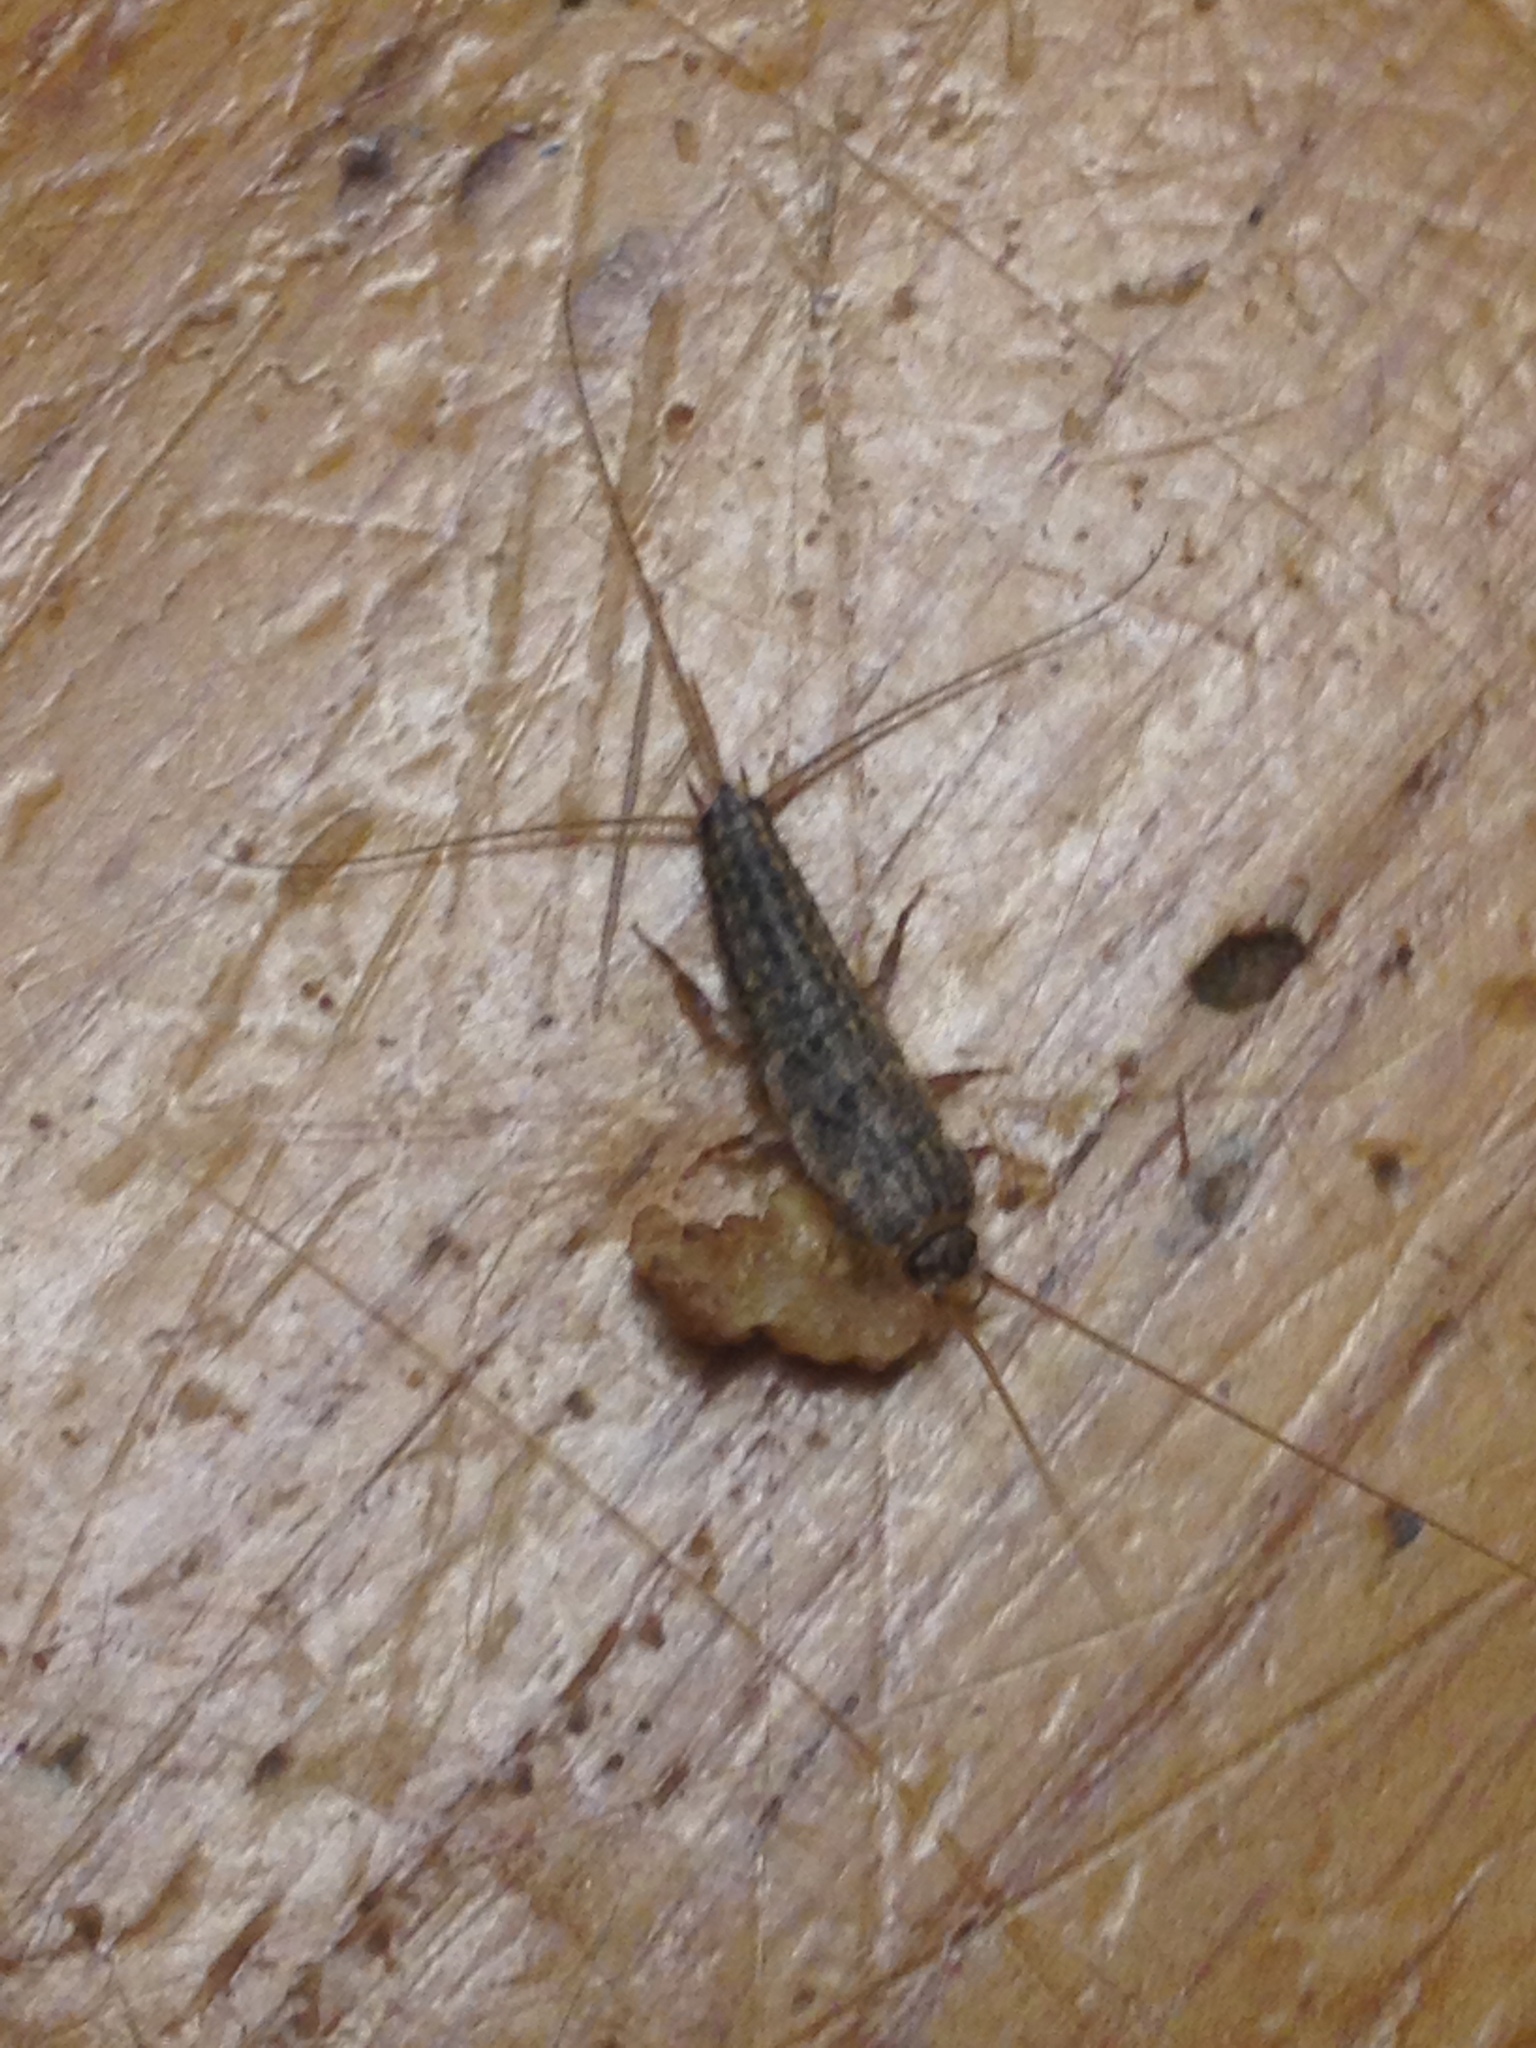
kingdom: Animalia
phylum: Arthropoda
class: Insecta
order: Zygentoma
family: Lepismatidae
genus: Ctenolepisma
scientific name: Ctenolepisma lineata
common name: Four-lined silverfish
